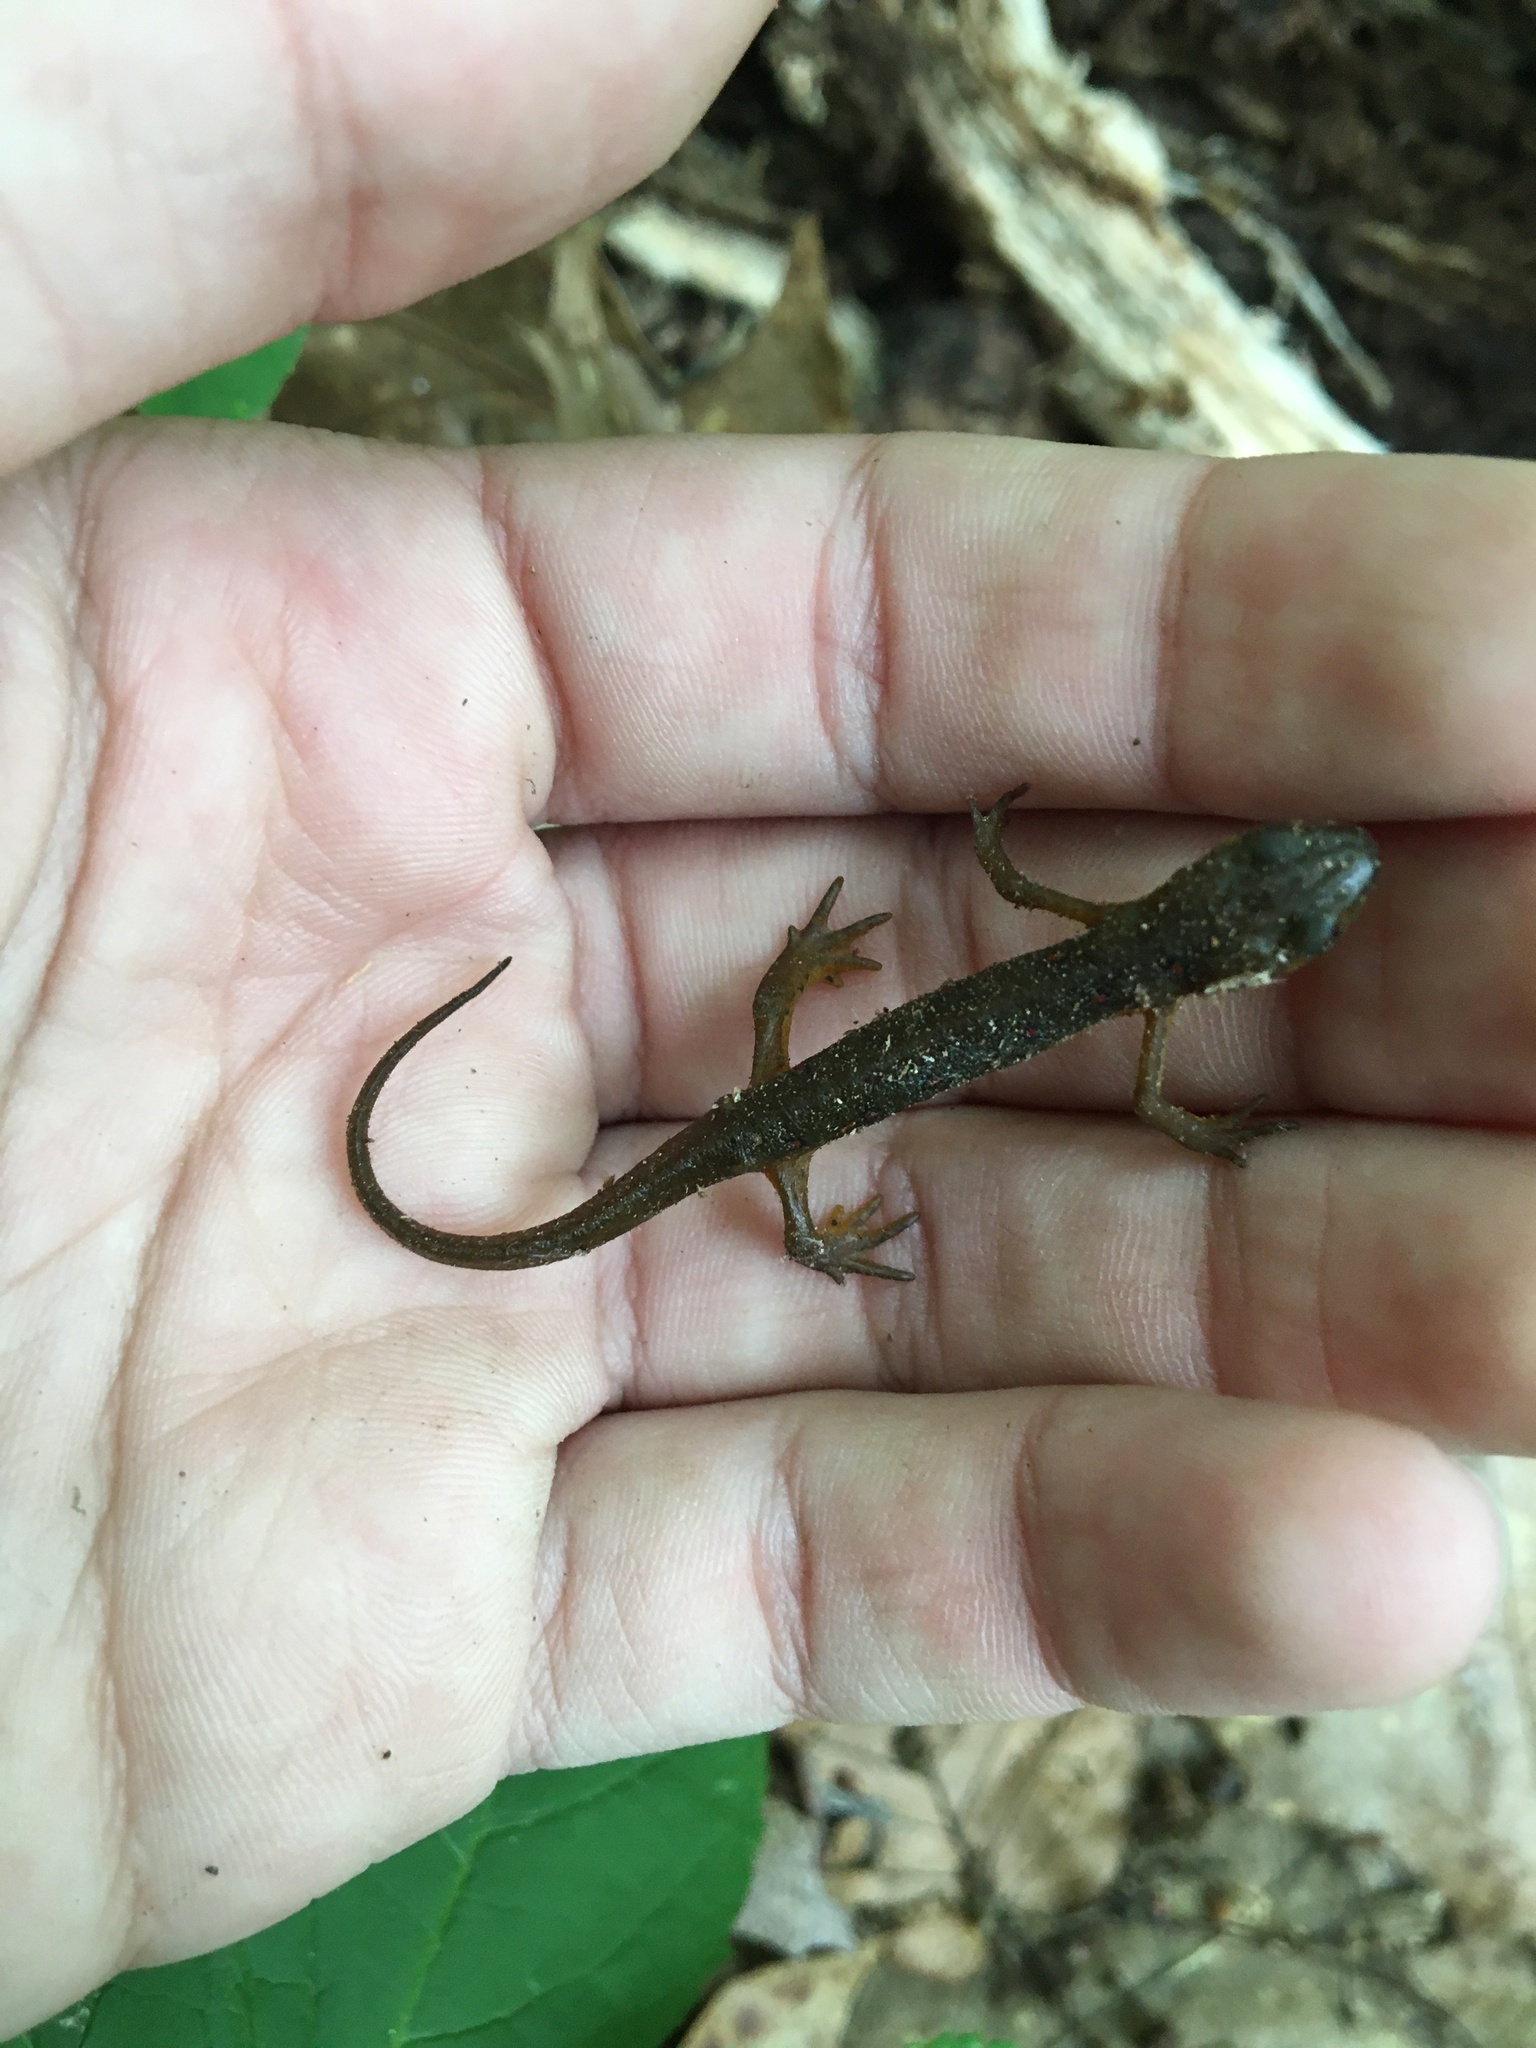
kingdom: Animalia
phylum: Chordata
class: Amphibia
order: Caudata
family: Salamandridae
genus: Notophthalmus
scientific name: Notophthalmus viridescens
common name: Eastern newt
